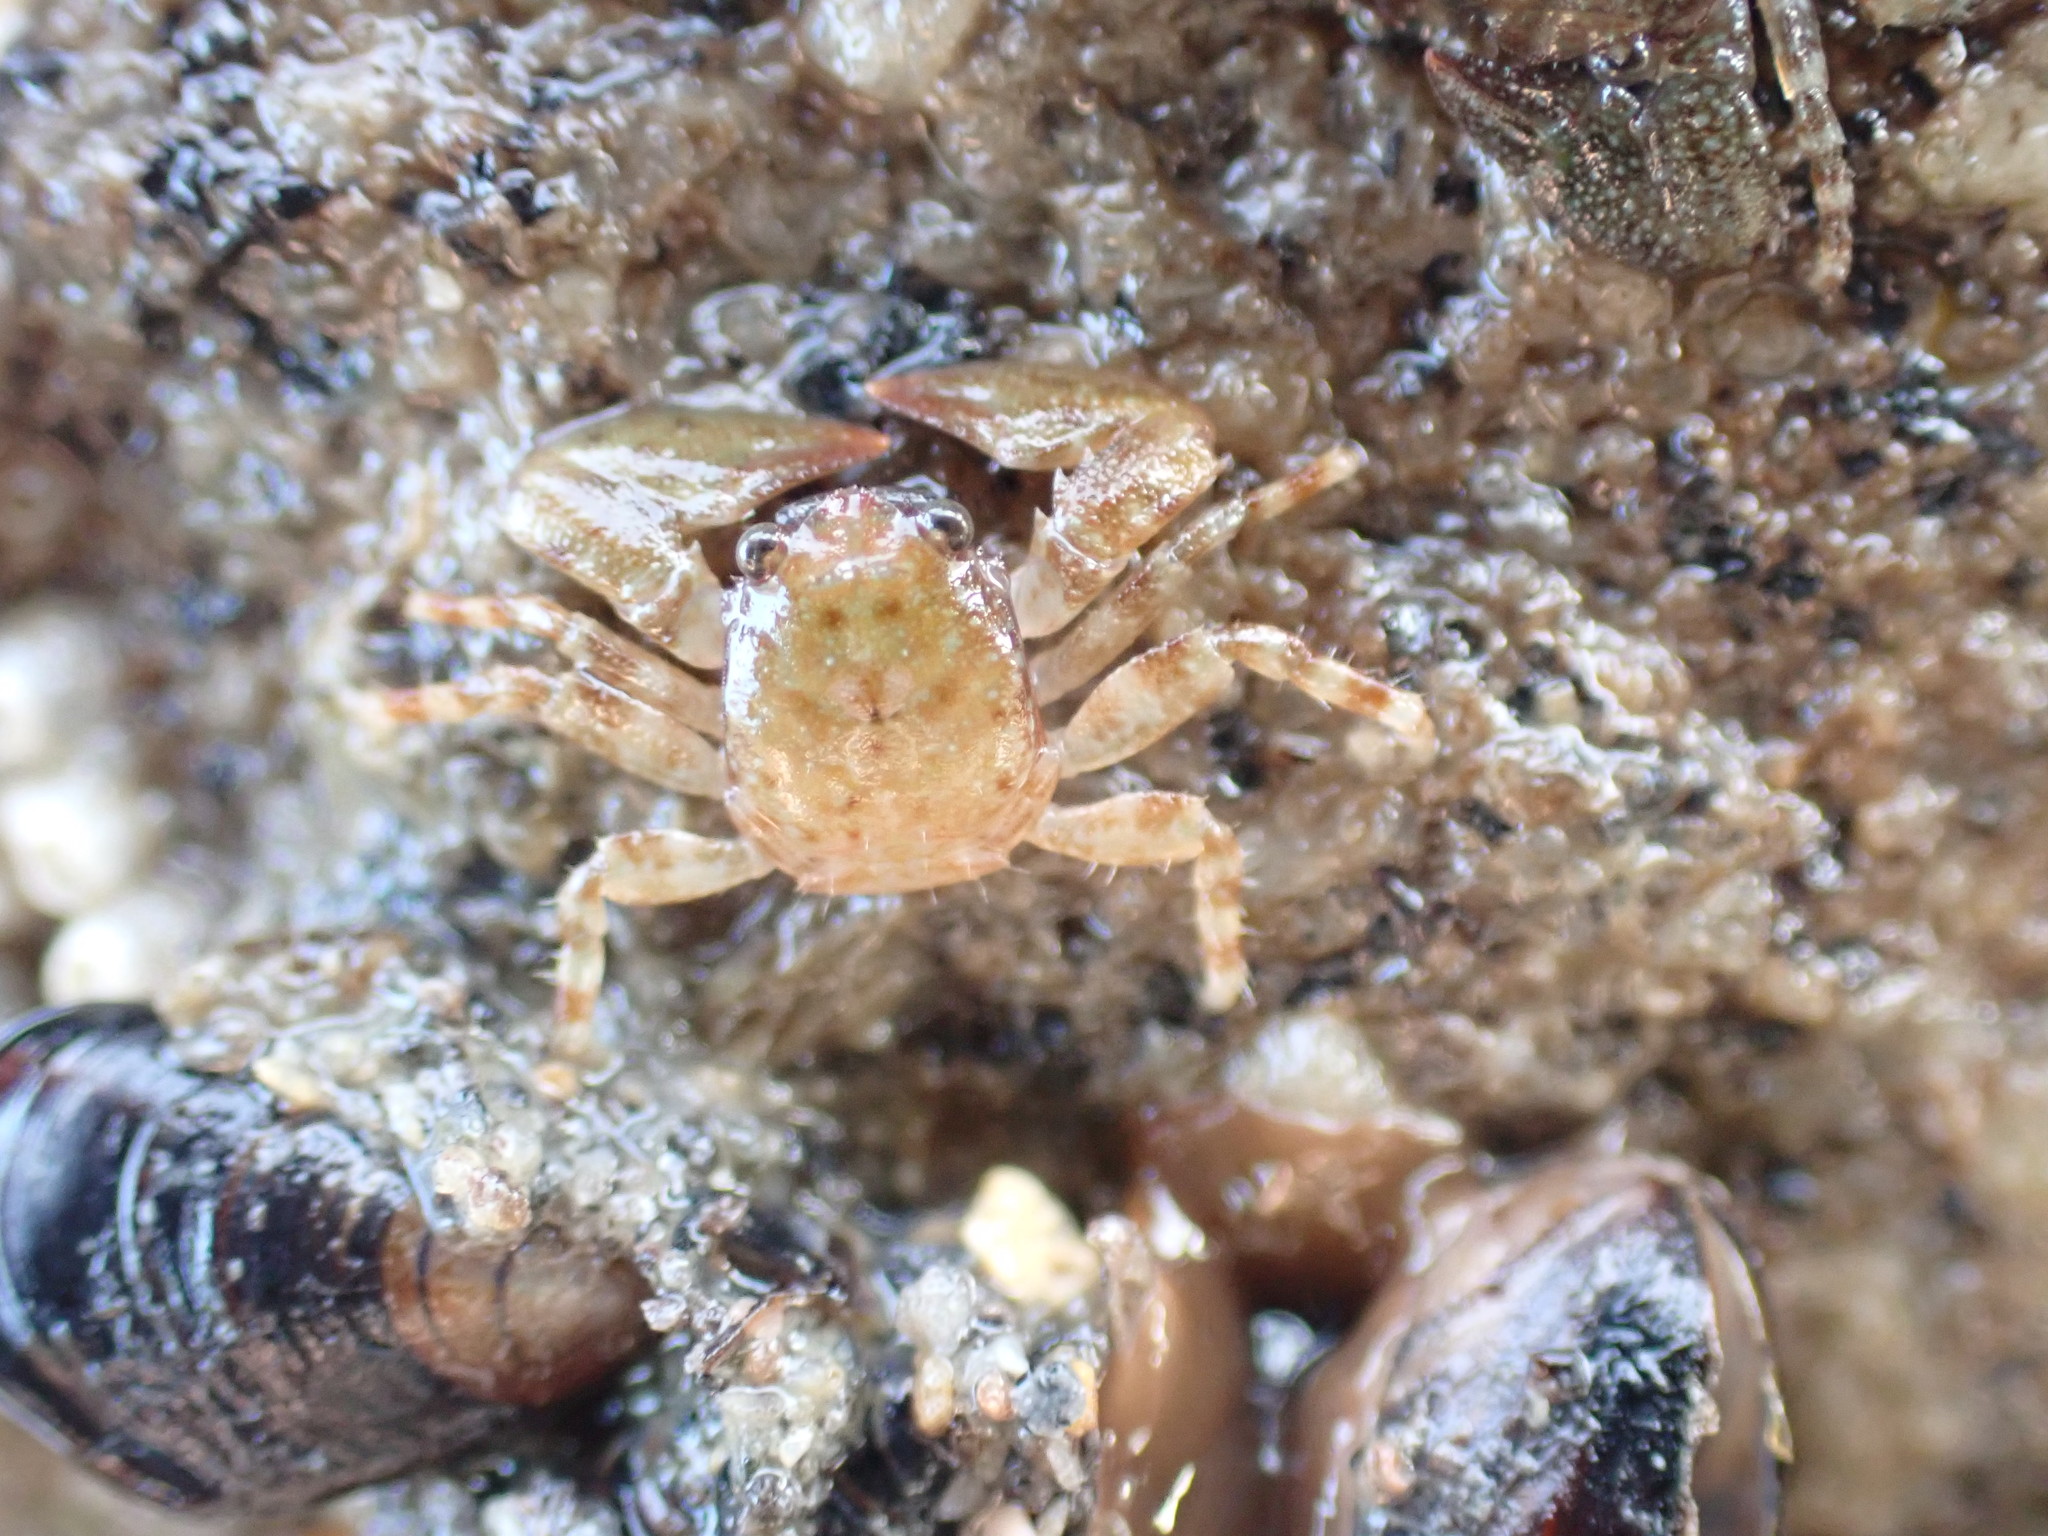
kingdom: Animalia
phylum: Arthropoda
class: Malacostraca
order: Decapoda
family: Porcellanidae
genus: Petrocheles
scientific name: Petrocheles spinosus
